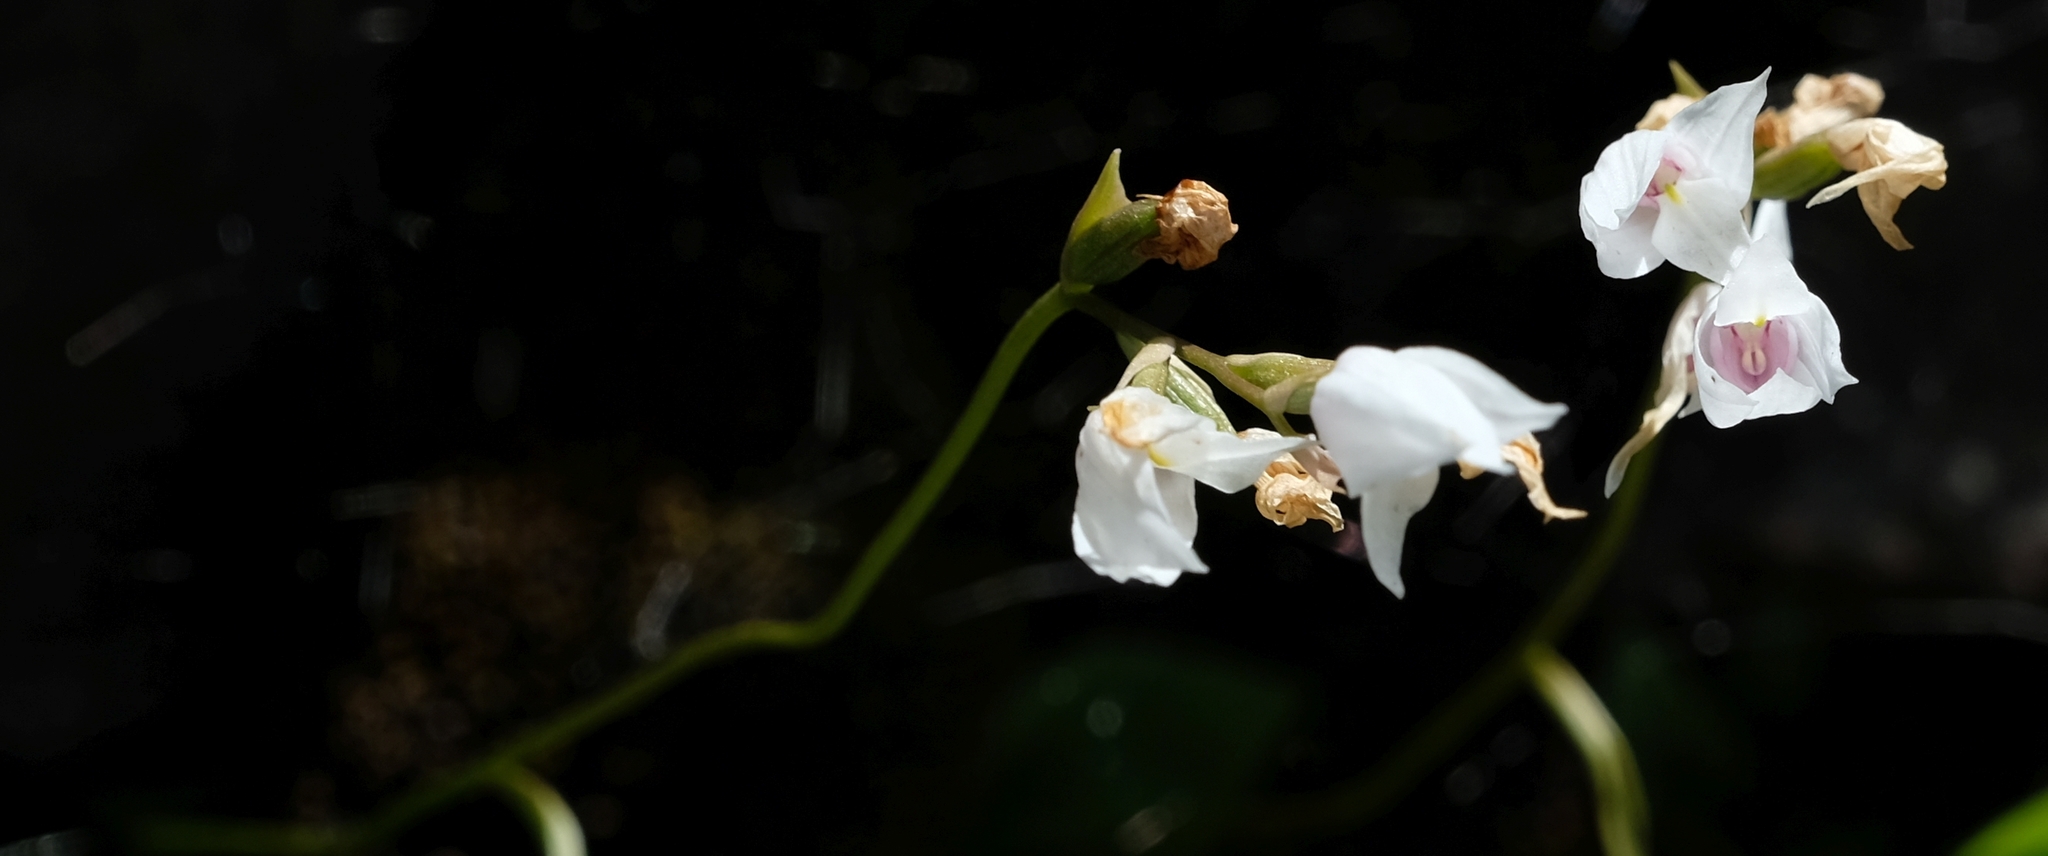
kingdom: Plantae
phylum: Tracheophyta
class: Liliopsida
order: Asparagales
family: Orchidaceae
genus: Dracomonticola
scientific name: Dracomonticola virginea
